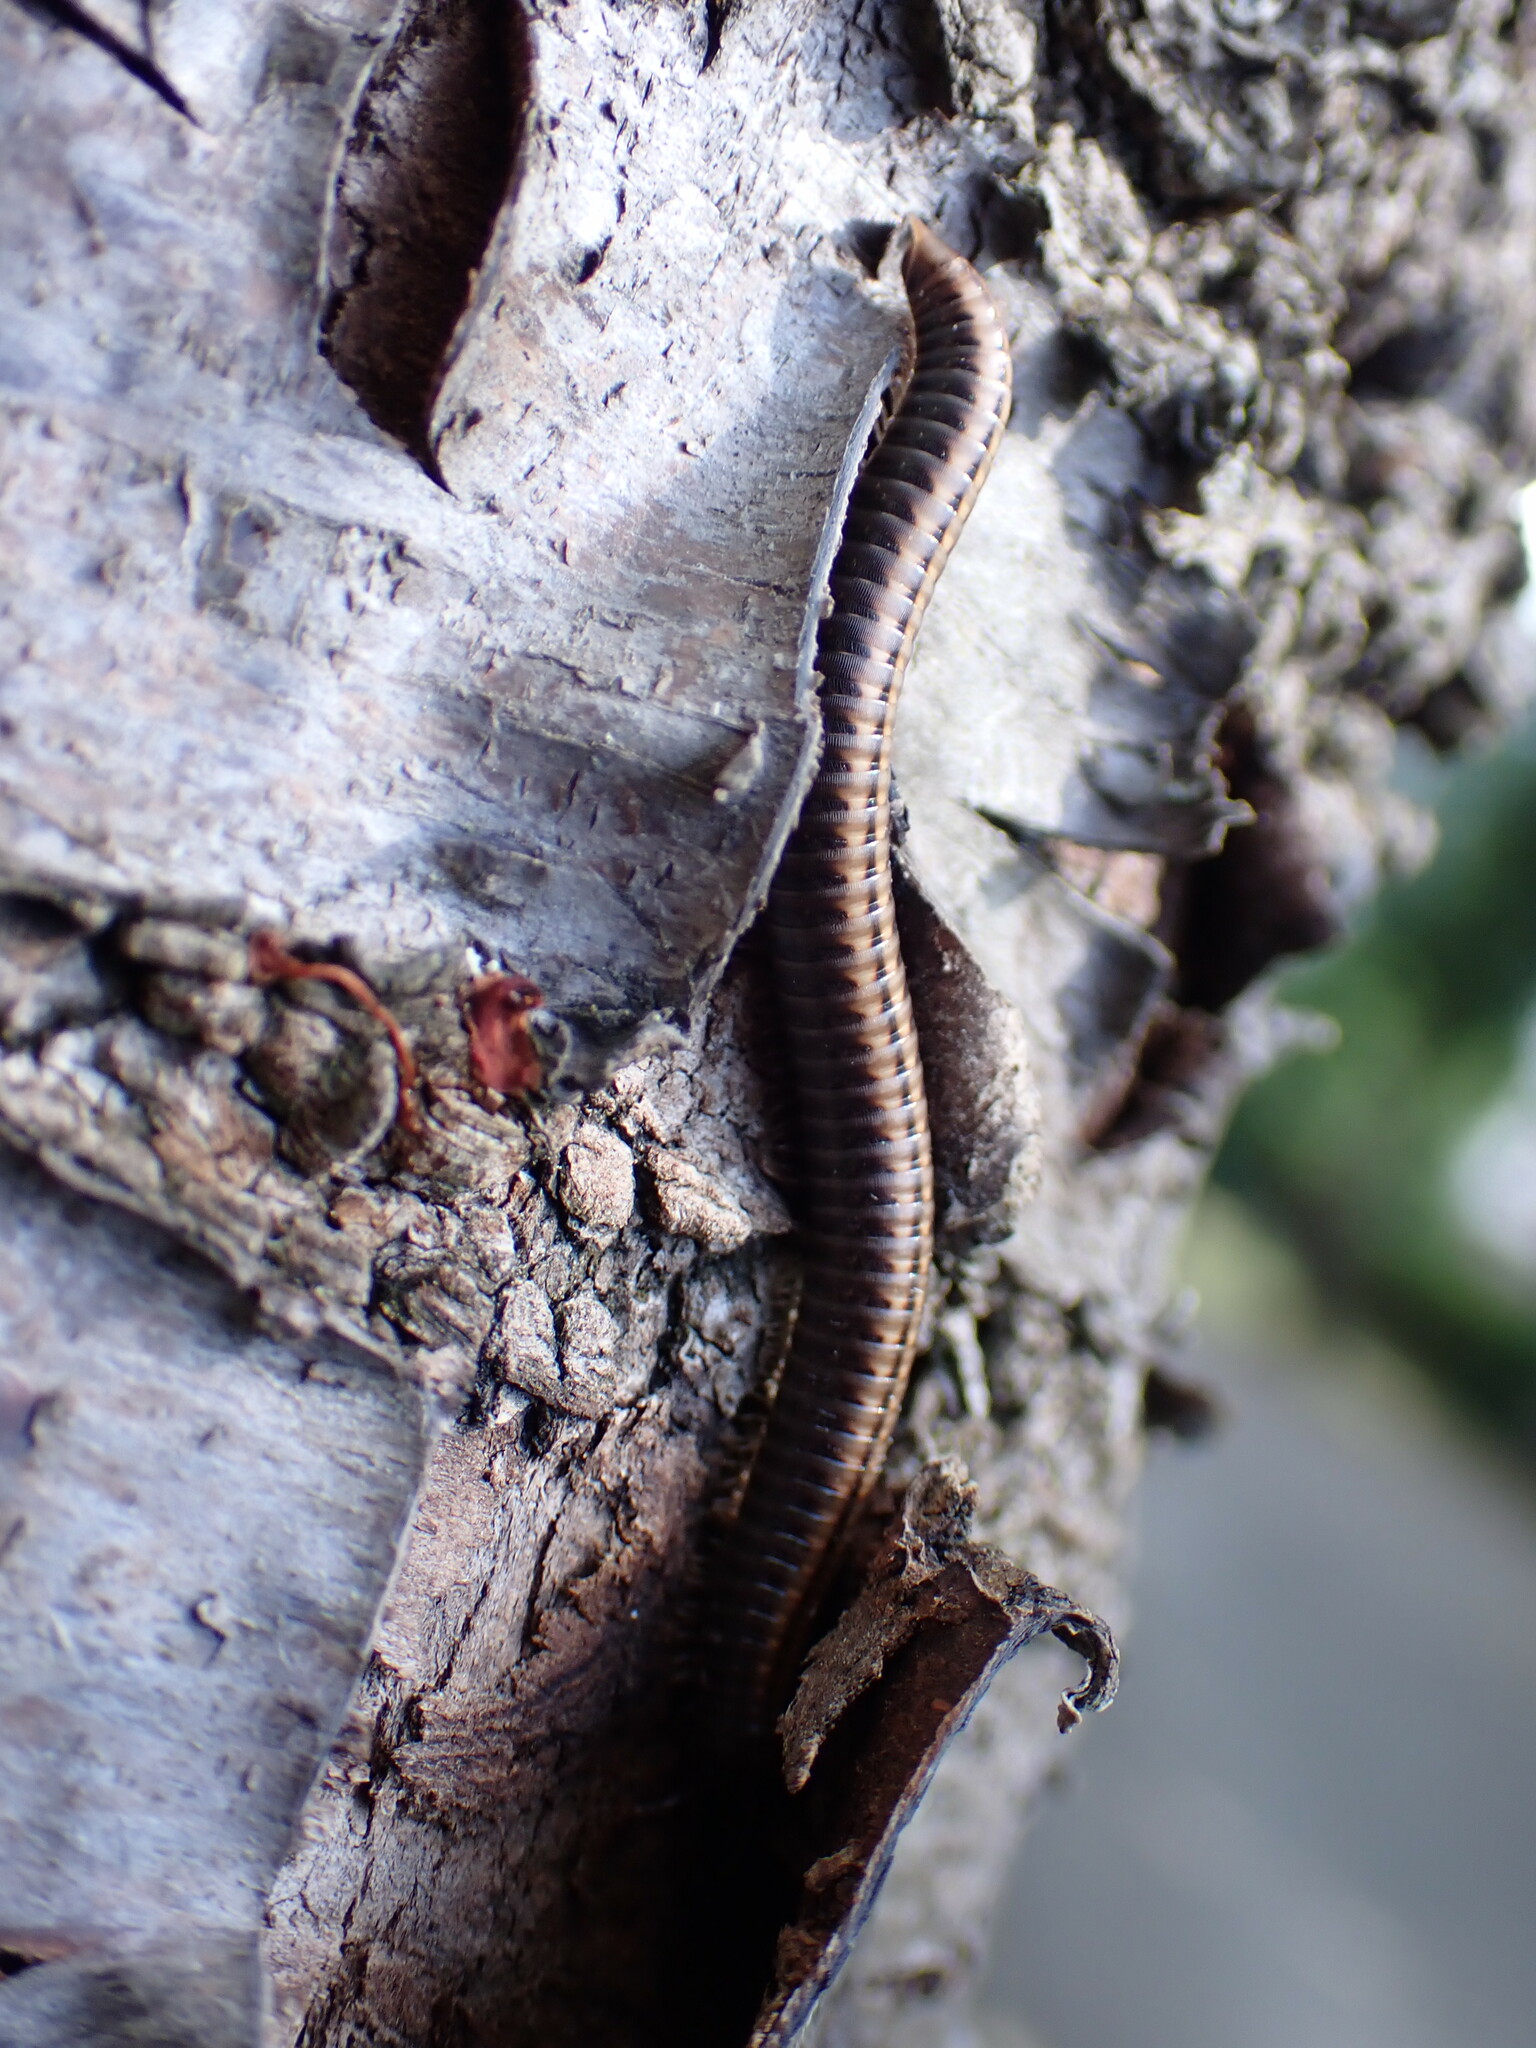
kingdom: Animalia
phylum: Arthropoda
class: Diplopoda
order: Julida
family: Julidae
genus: Ommatoiulus
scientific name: Ommatoiulus sabulosus
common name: Striped millipede
